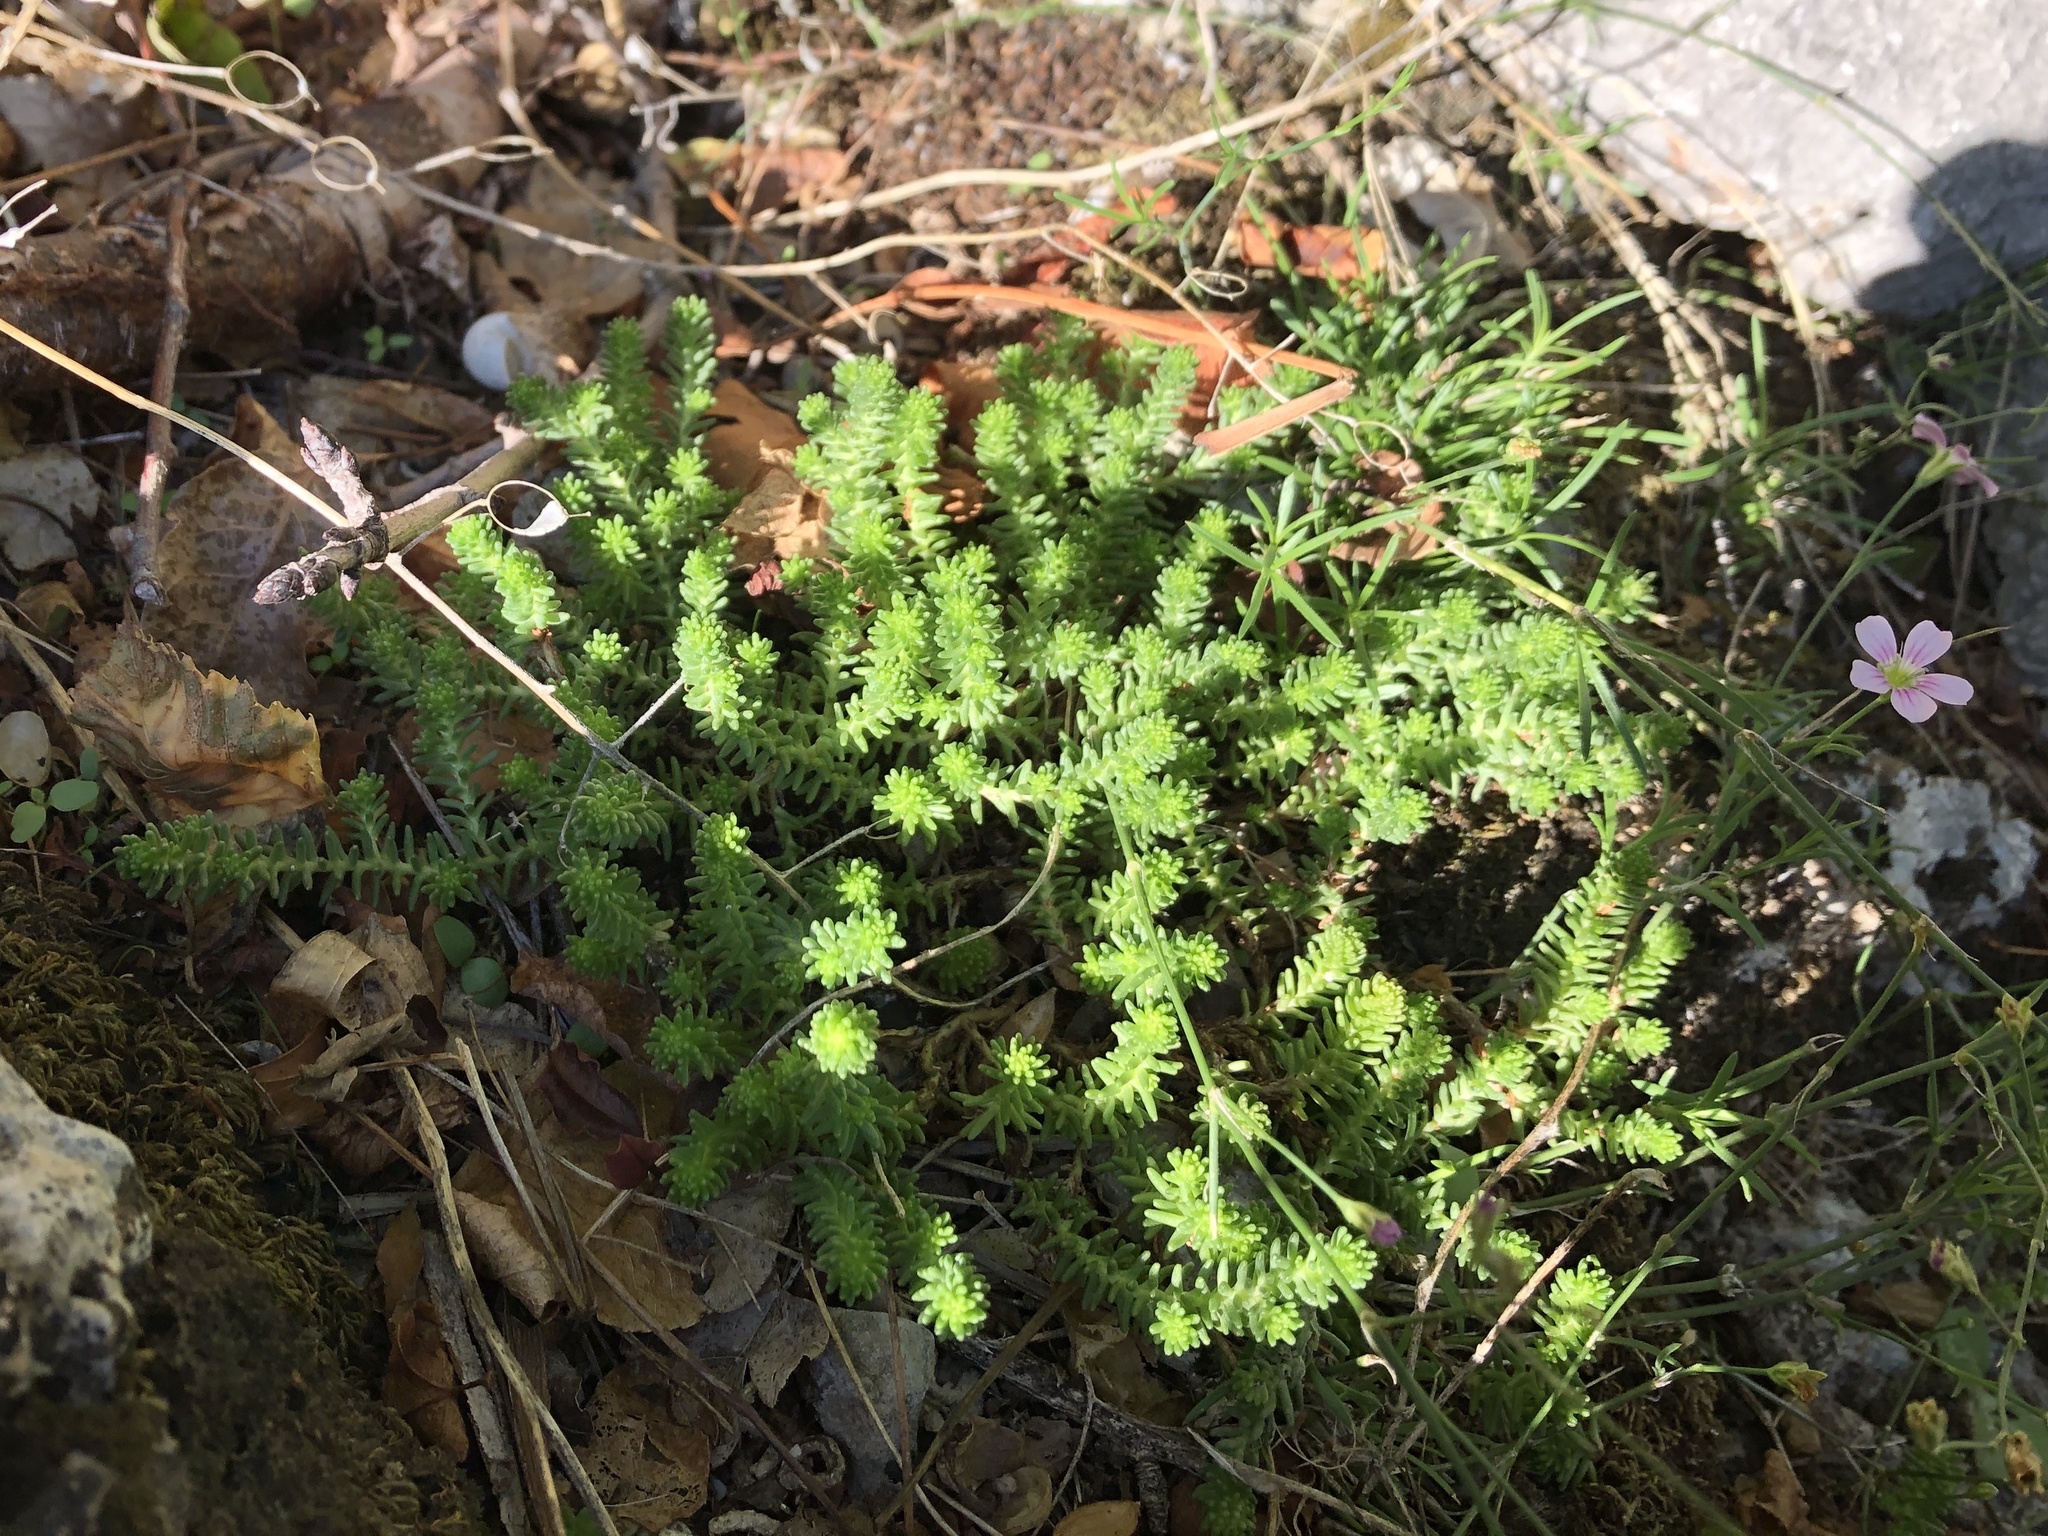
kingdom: Plantae
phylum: Tracheophyta
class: Magnoliopsida
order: Saxifragales
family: Crassulaceae
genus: Sedum
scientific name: Sedum sexangulare
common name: Tasteless stonecrop
